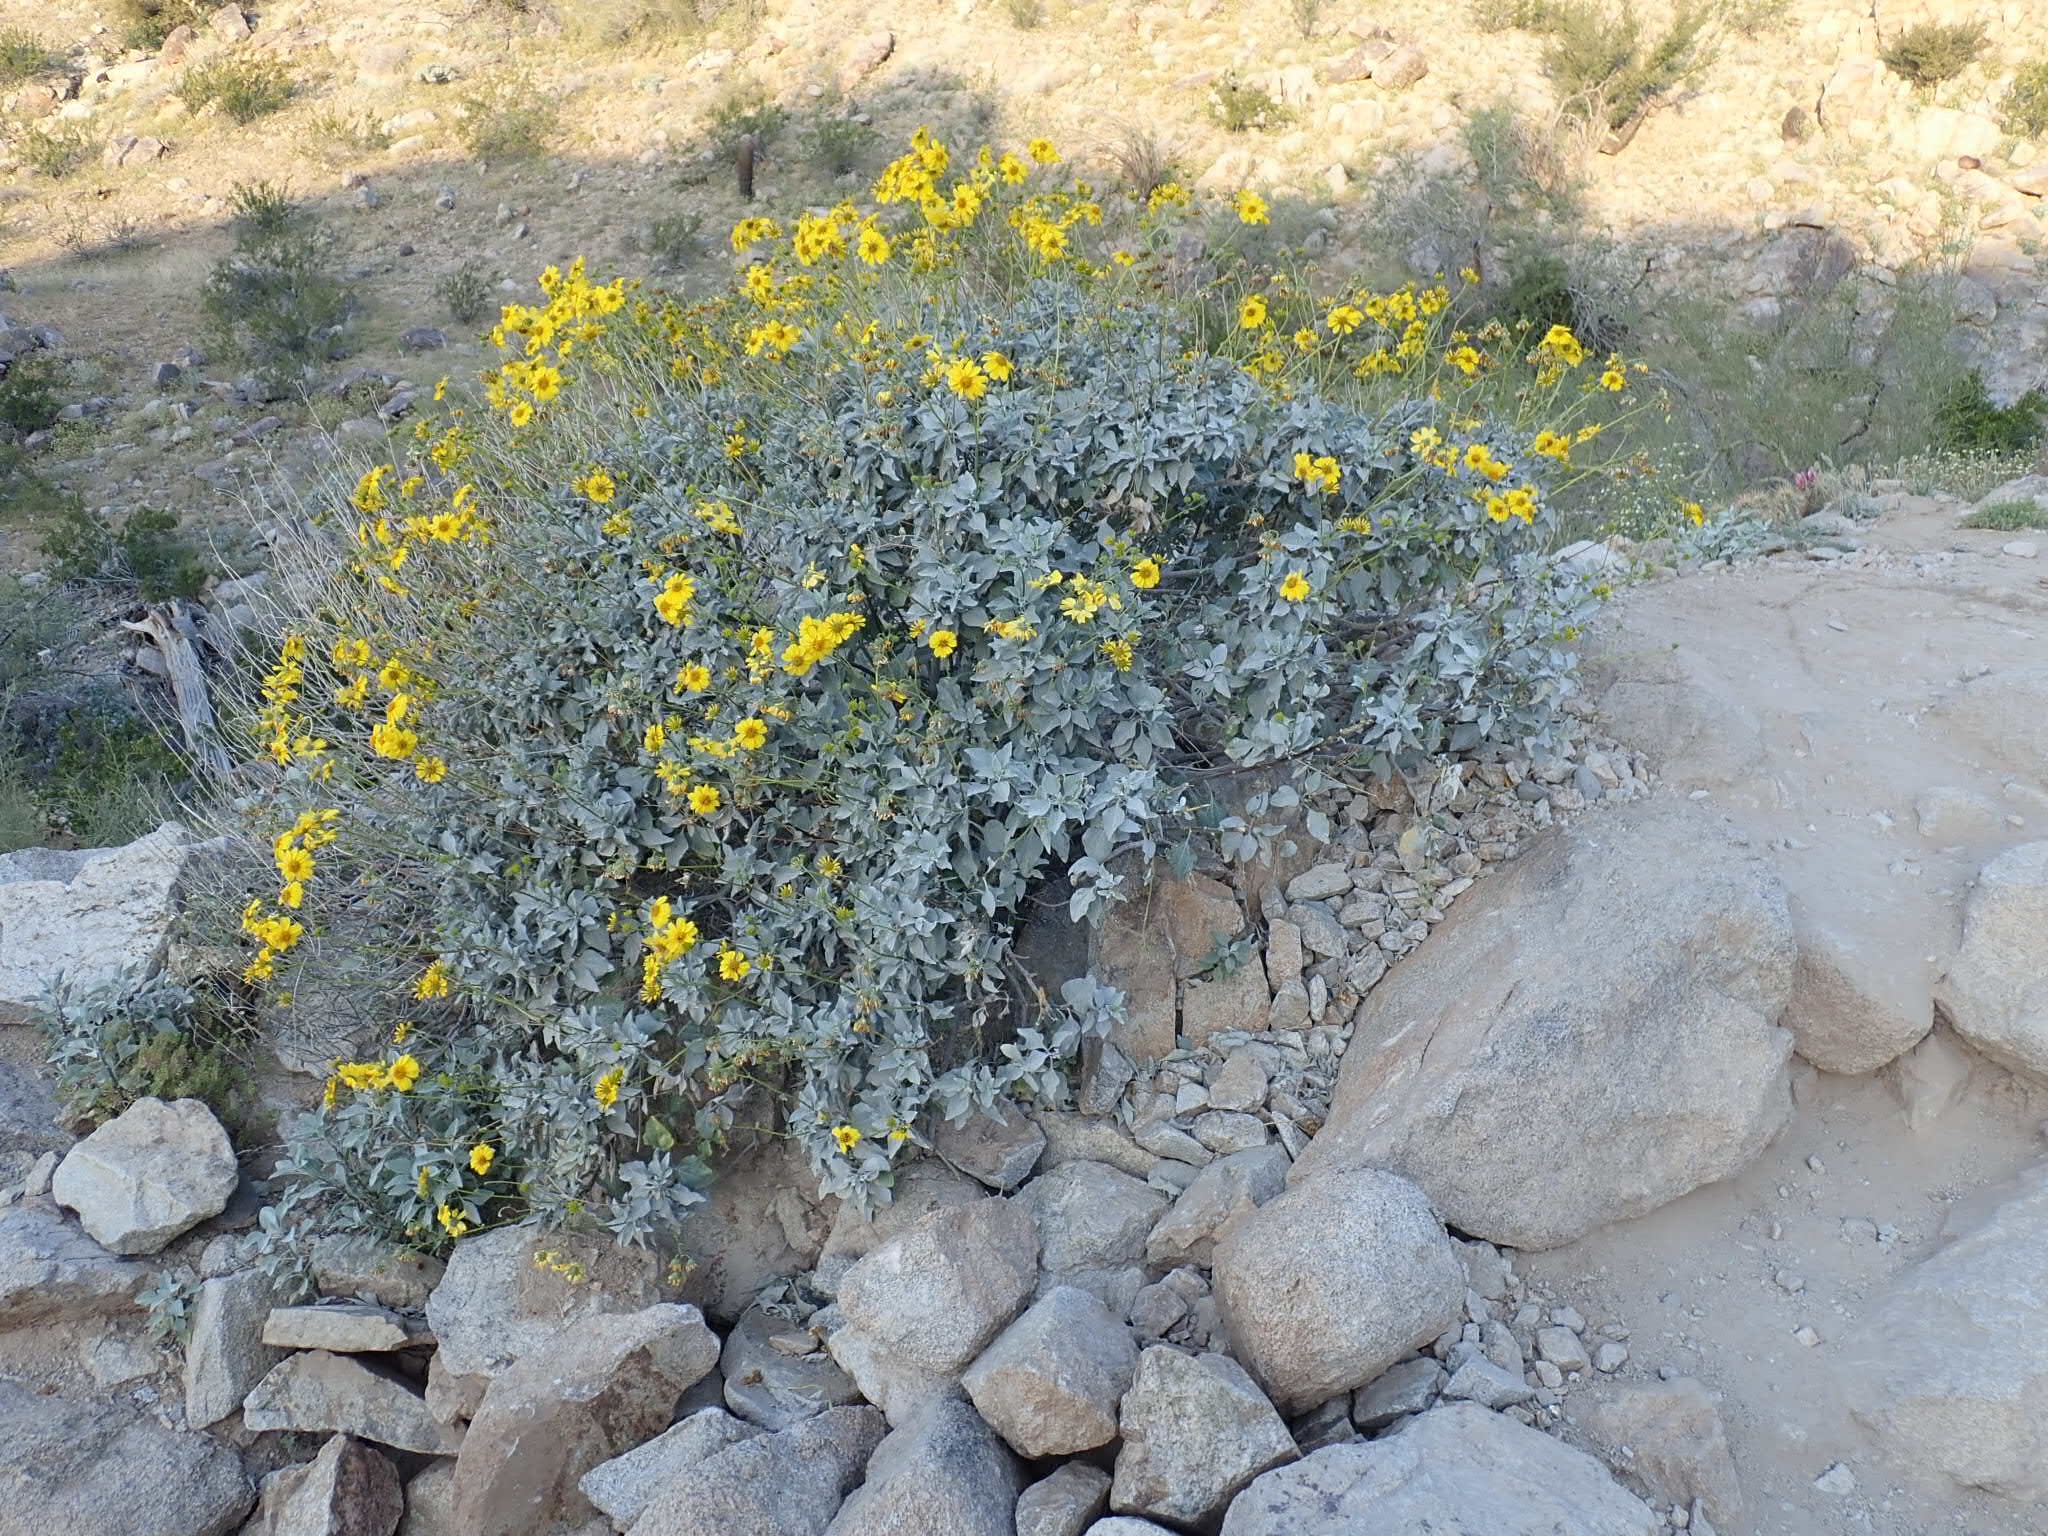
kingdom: Plantae
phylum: Tracheophyta
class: Magnoliopsida
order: Asterales
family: Asteraceae
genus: Encelia
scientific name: Encelia farinosa
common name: Brittlebush
